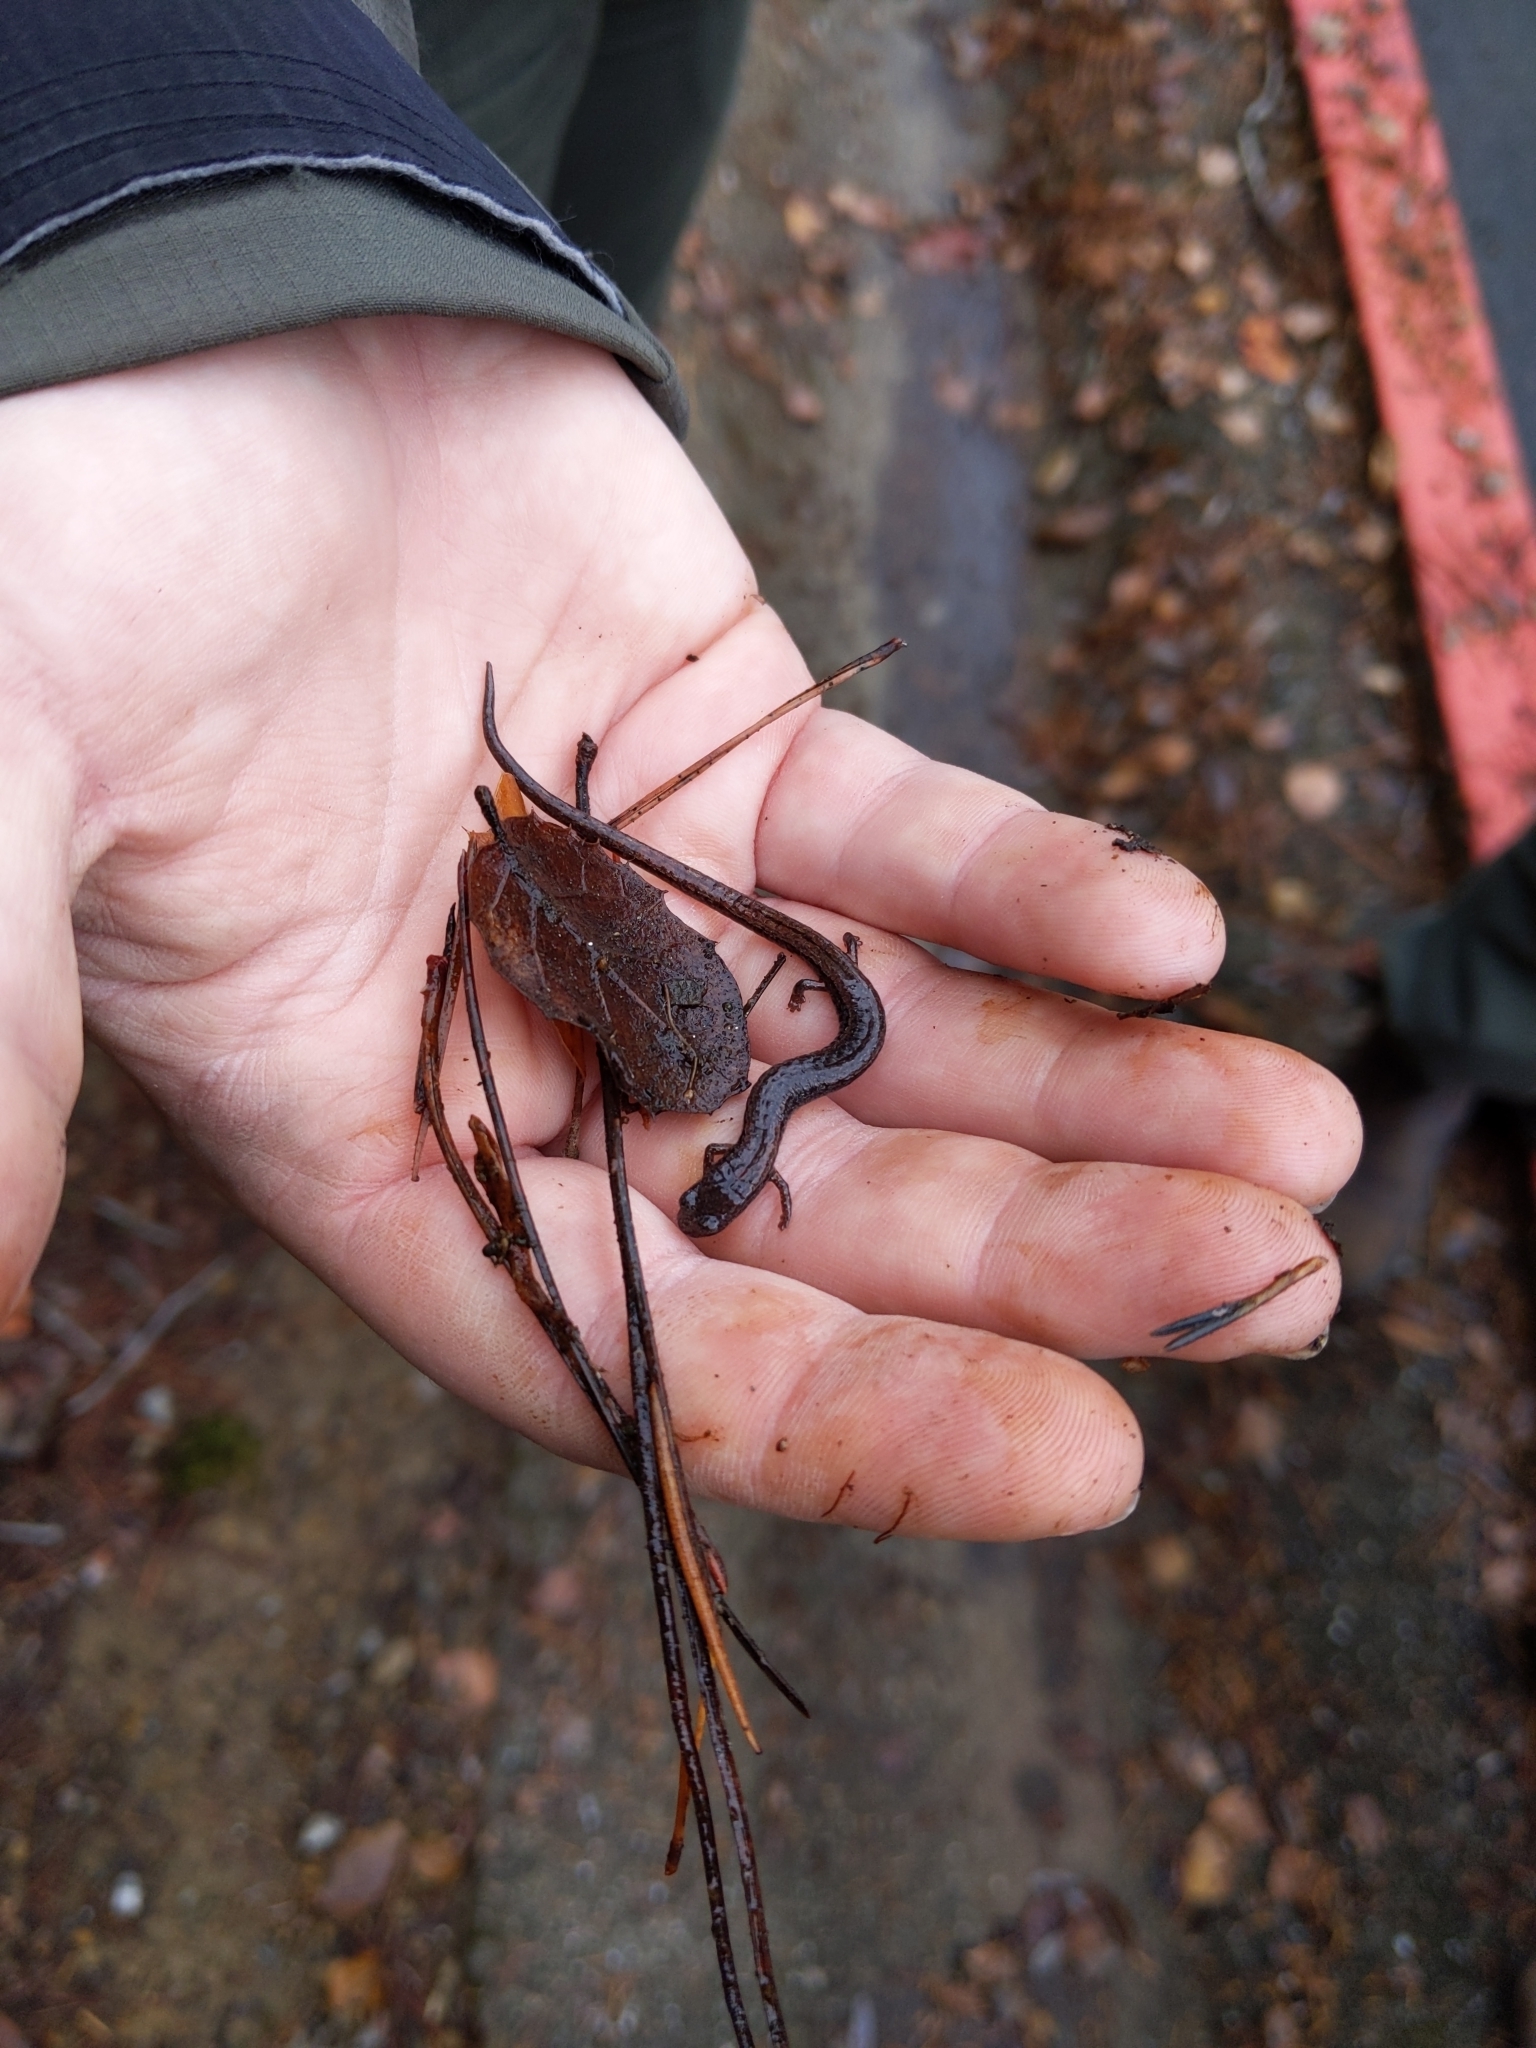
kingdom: Animalia
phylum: Chordata
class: Amphibia
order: Caudata
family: Plethodontidae
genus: Batrachoseps
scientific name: Batrachoseps attenuatus
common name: California slender salamander
